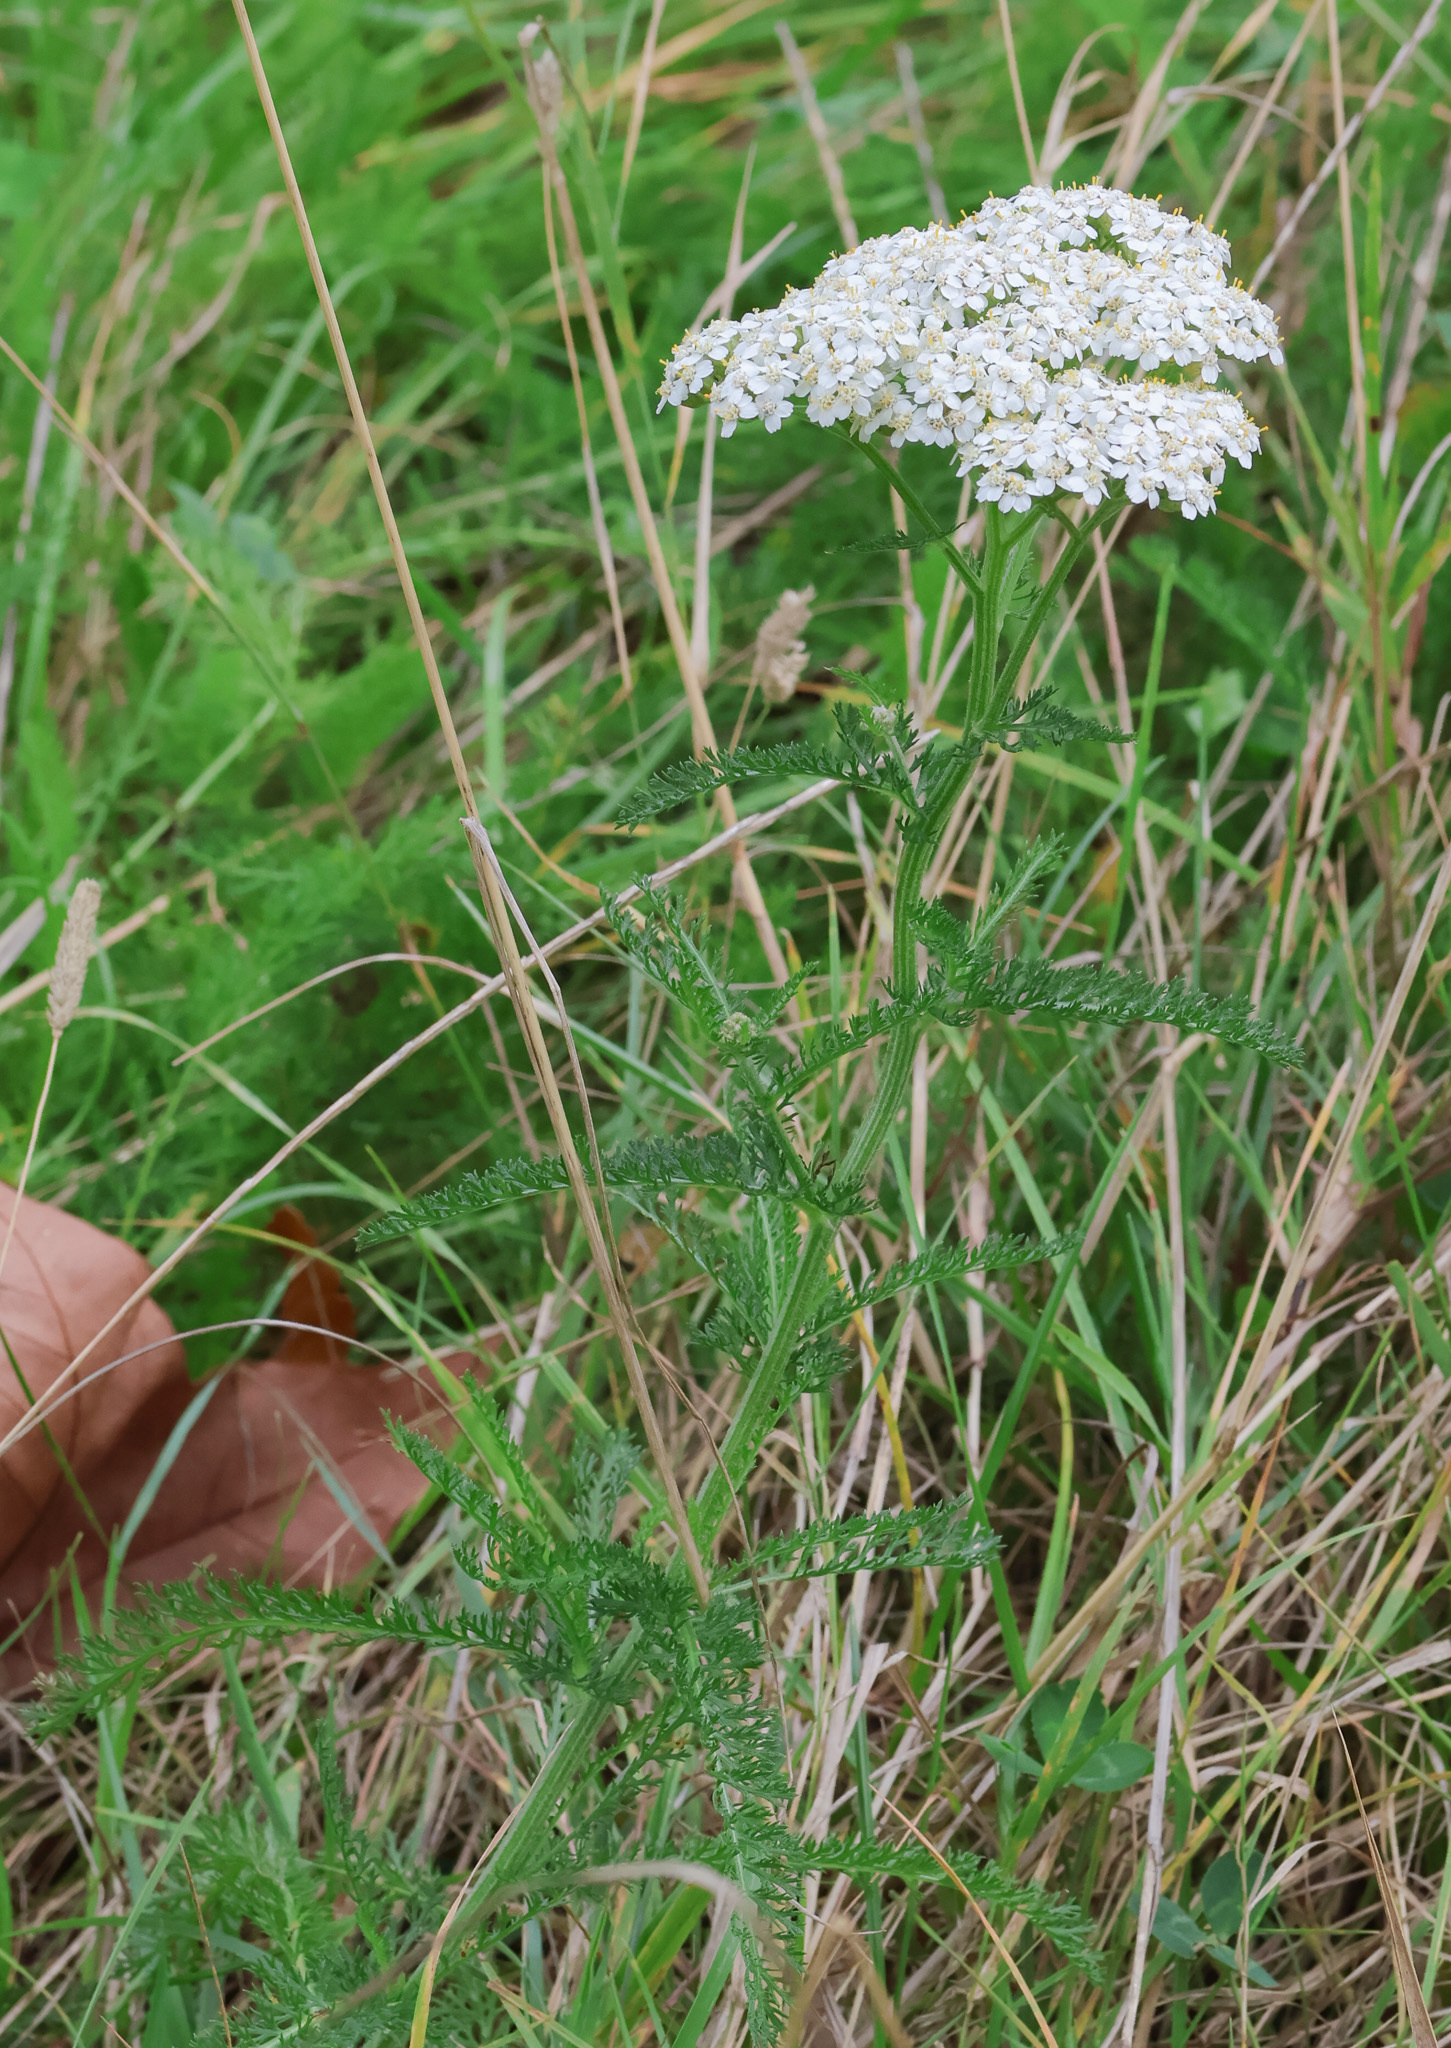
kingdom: Plantae
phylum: Tracheophyta
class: Magnoliopsida
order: Asterales
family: Asteraceae
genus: Achillea
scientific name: Achillea millefolium
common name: Yarrow
